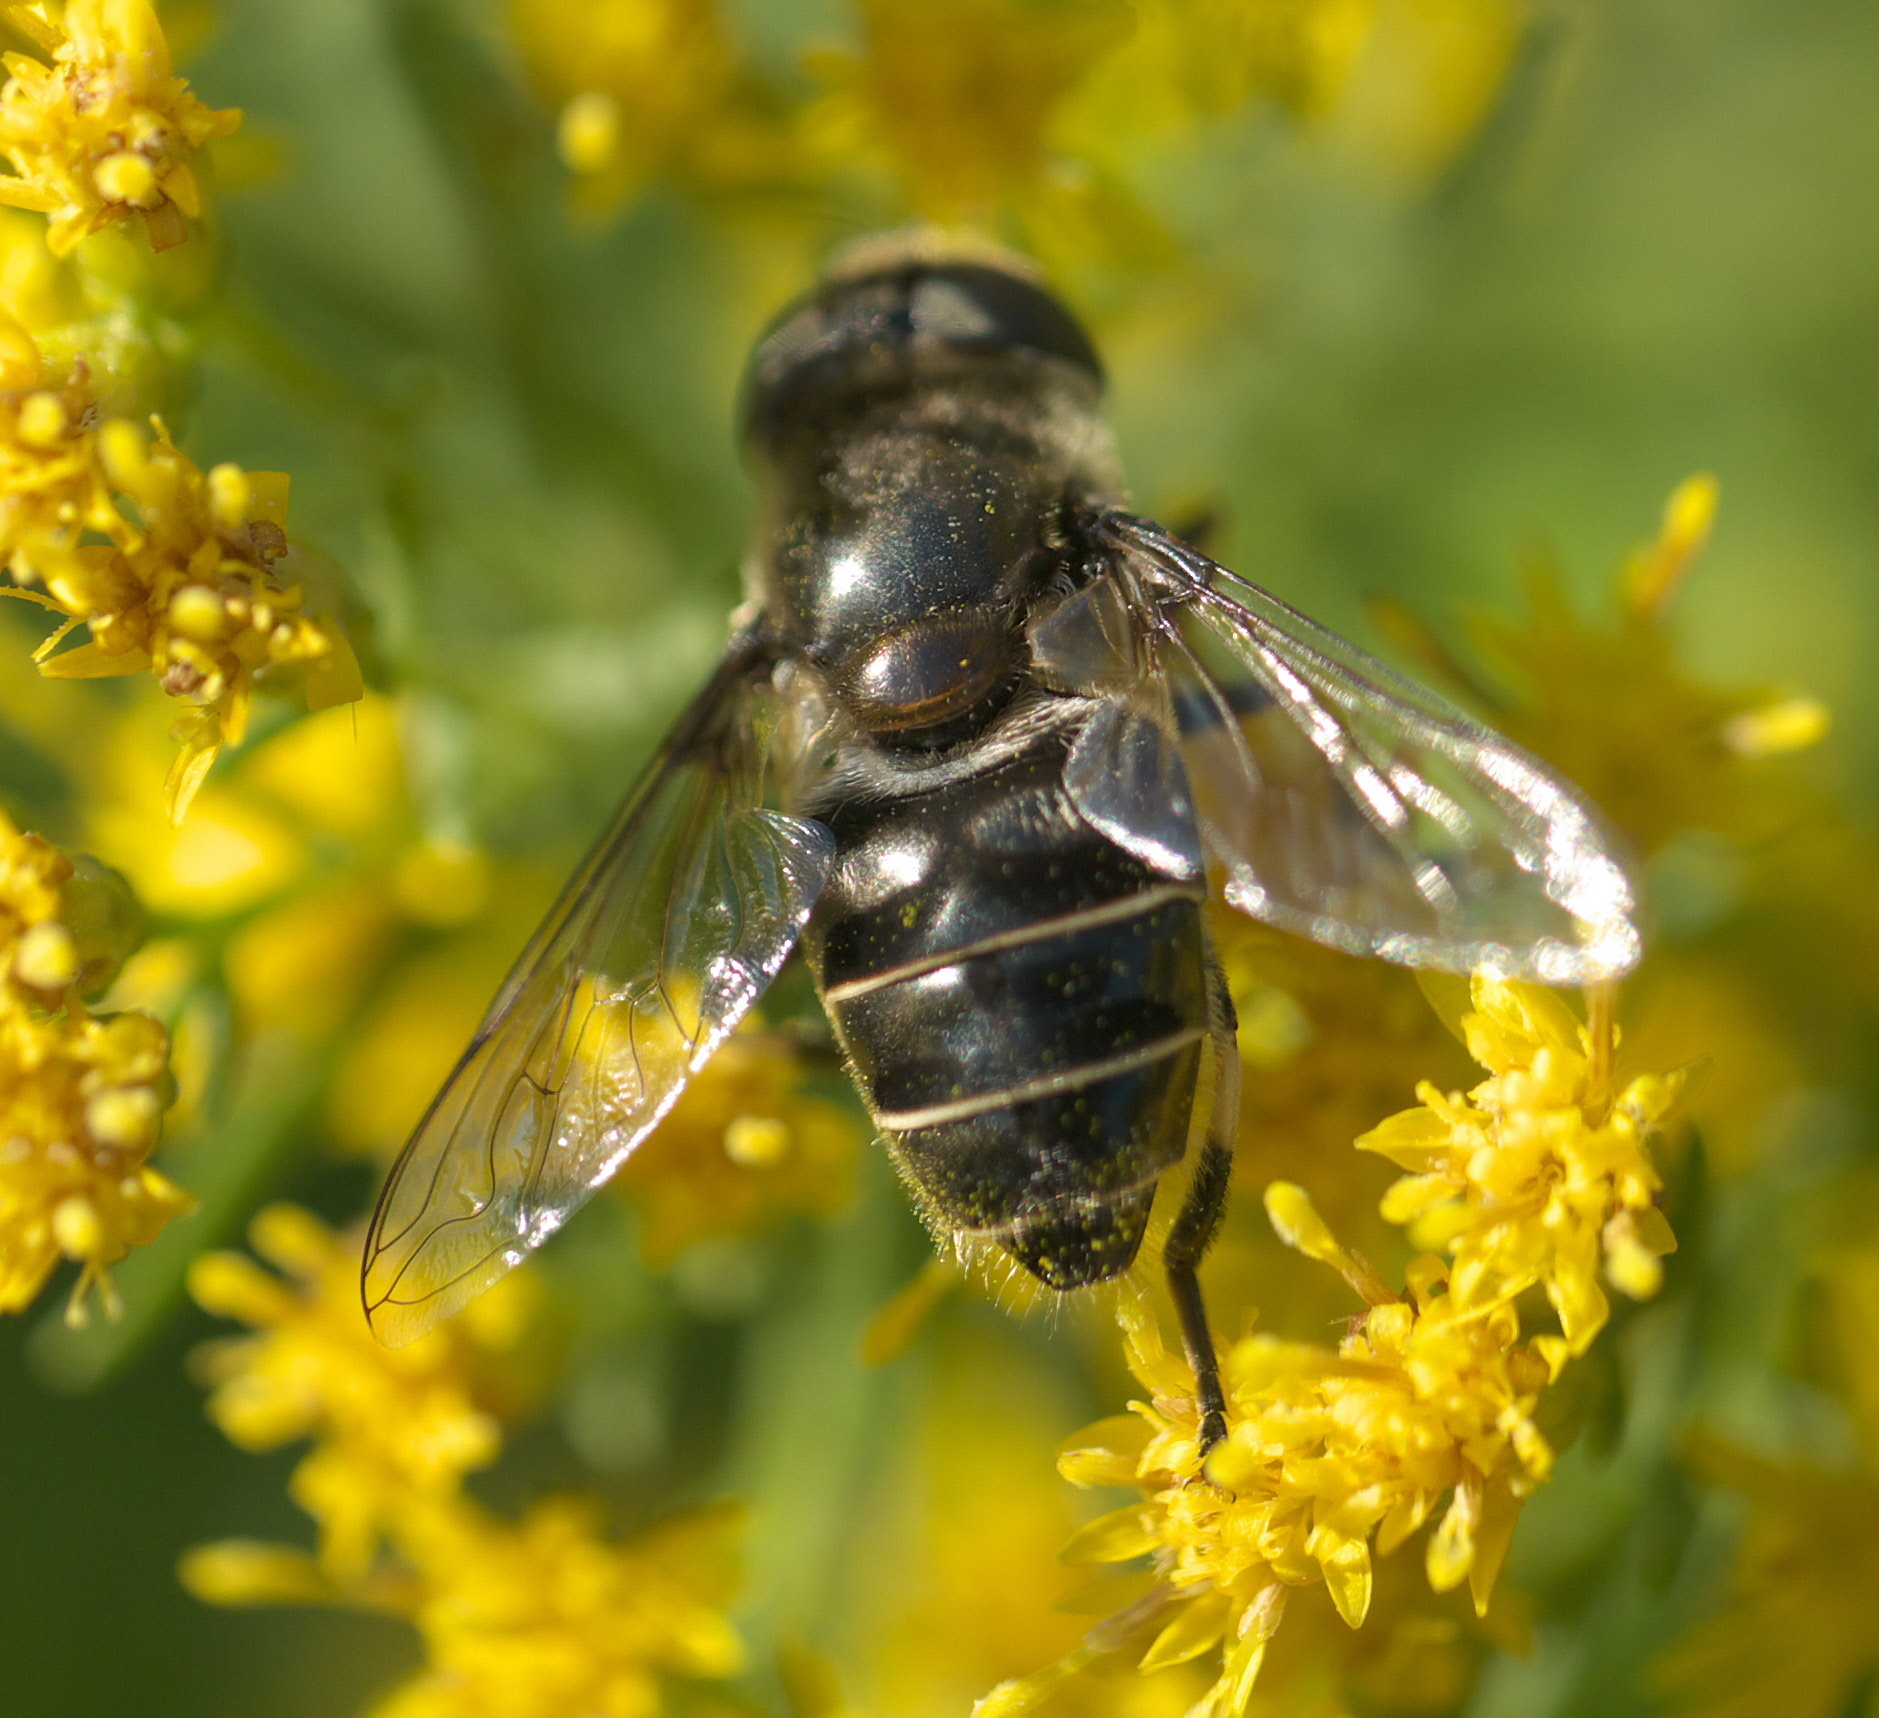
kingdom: Animalia
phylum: Arthropoda
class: Insecta
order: Diptera
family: Syrphidae
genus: Eristalis
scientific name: Eristalis dimidiata
